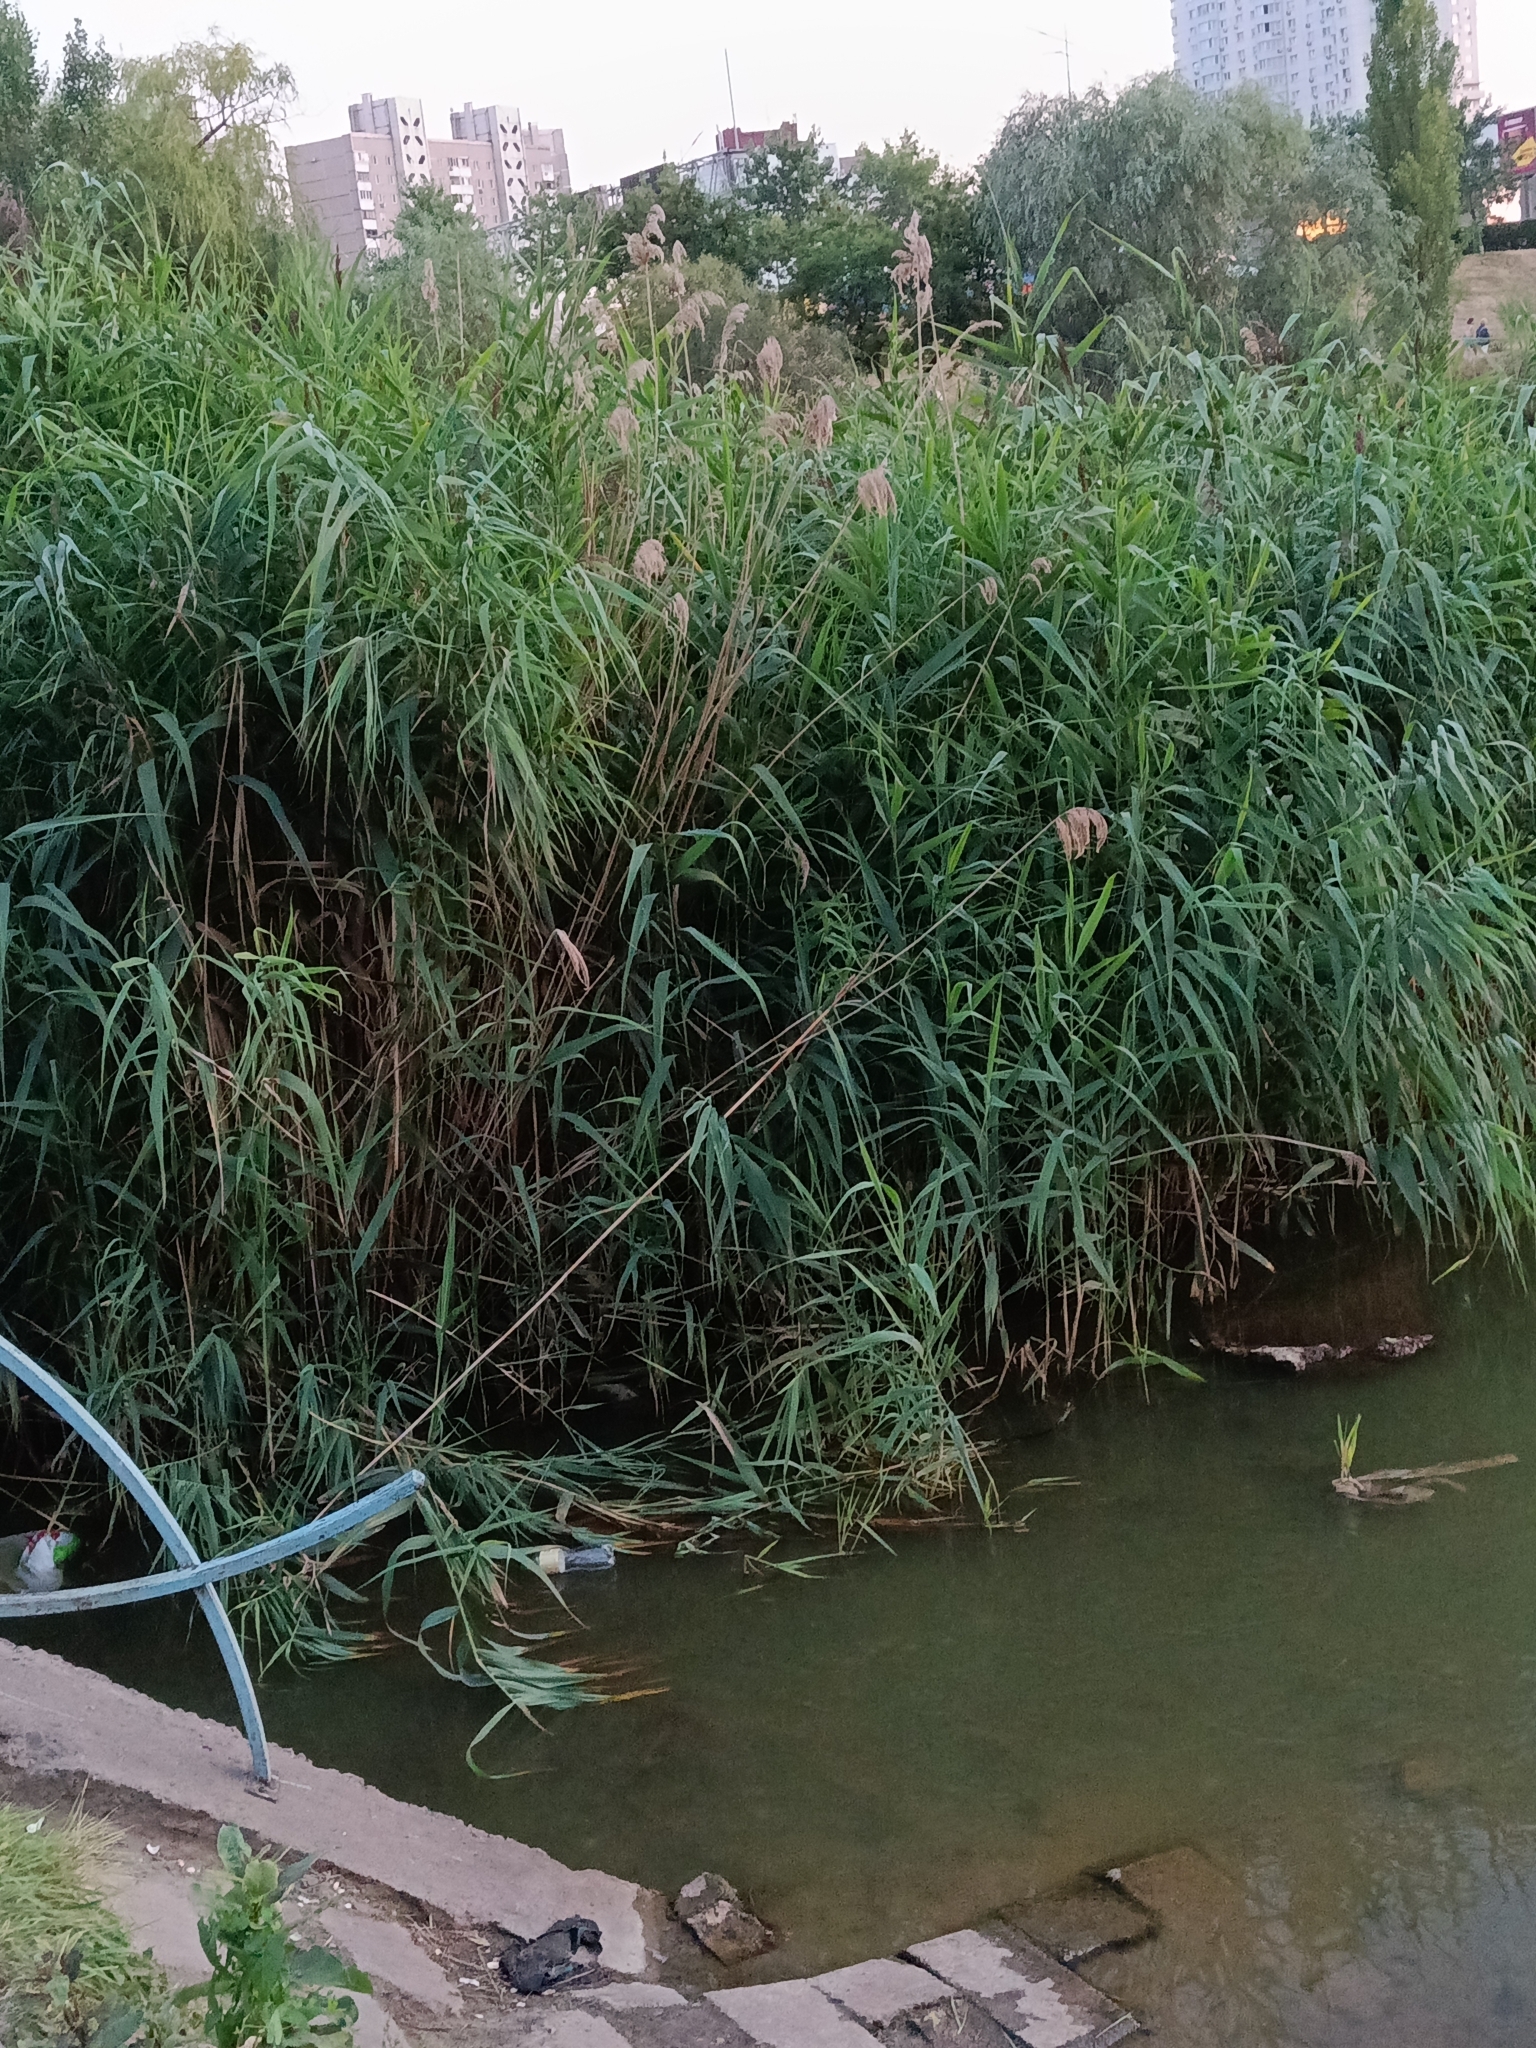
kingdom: Plantae
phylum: Tracheophyta
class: Liliopsida
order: Poales
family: Poaceae
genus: Phragmites
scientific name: Phragmites australis
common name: Common reed
